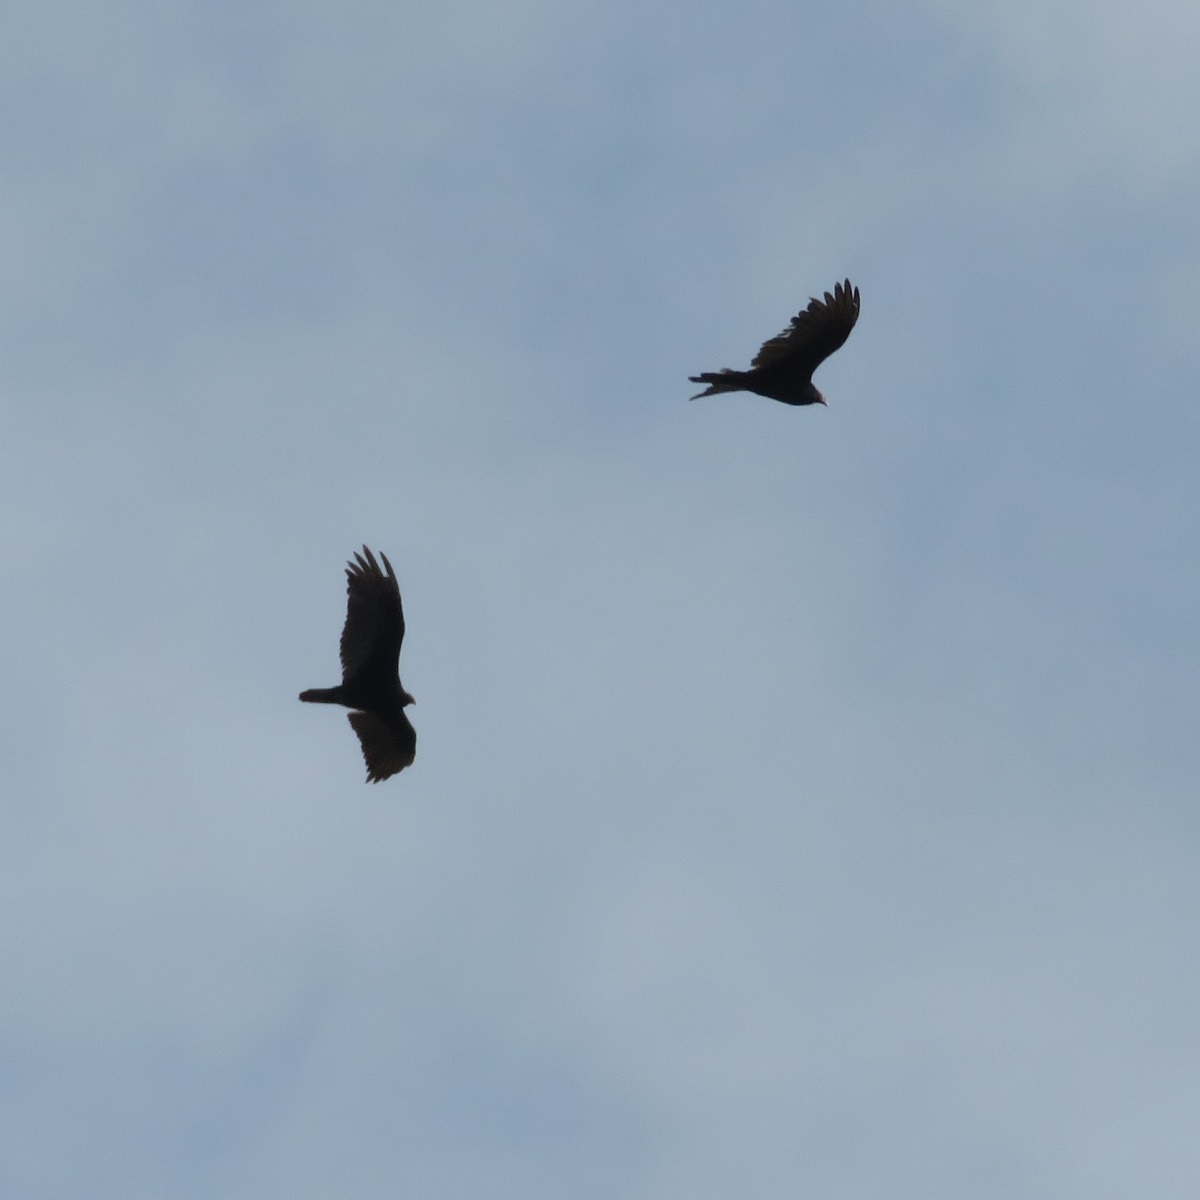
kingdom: Animalia
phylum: Chordata
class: Aves
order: Accipitriformes
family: Cathartidae
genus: Cathartes
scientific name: Cathartes aura
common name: Turkey vulture
